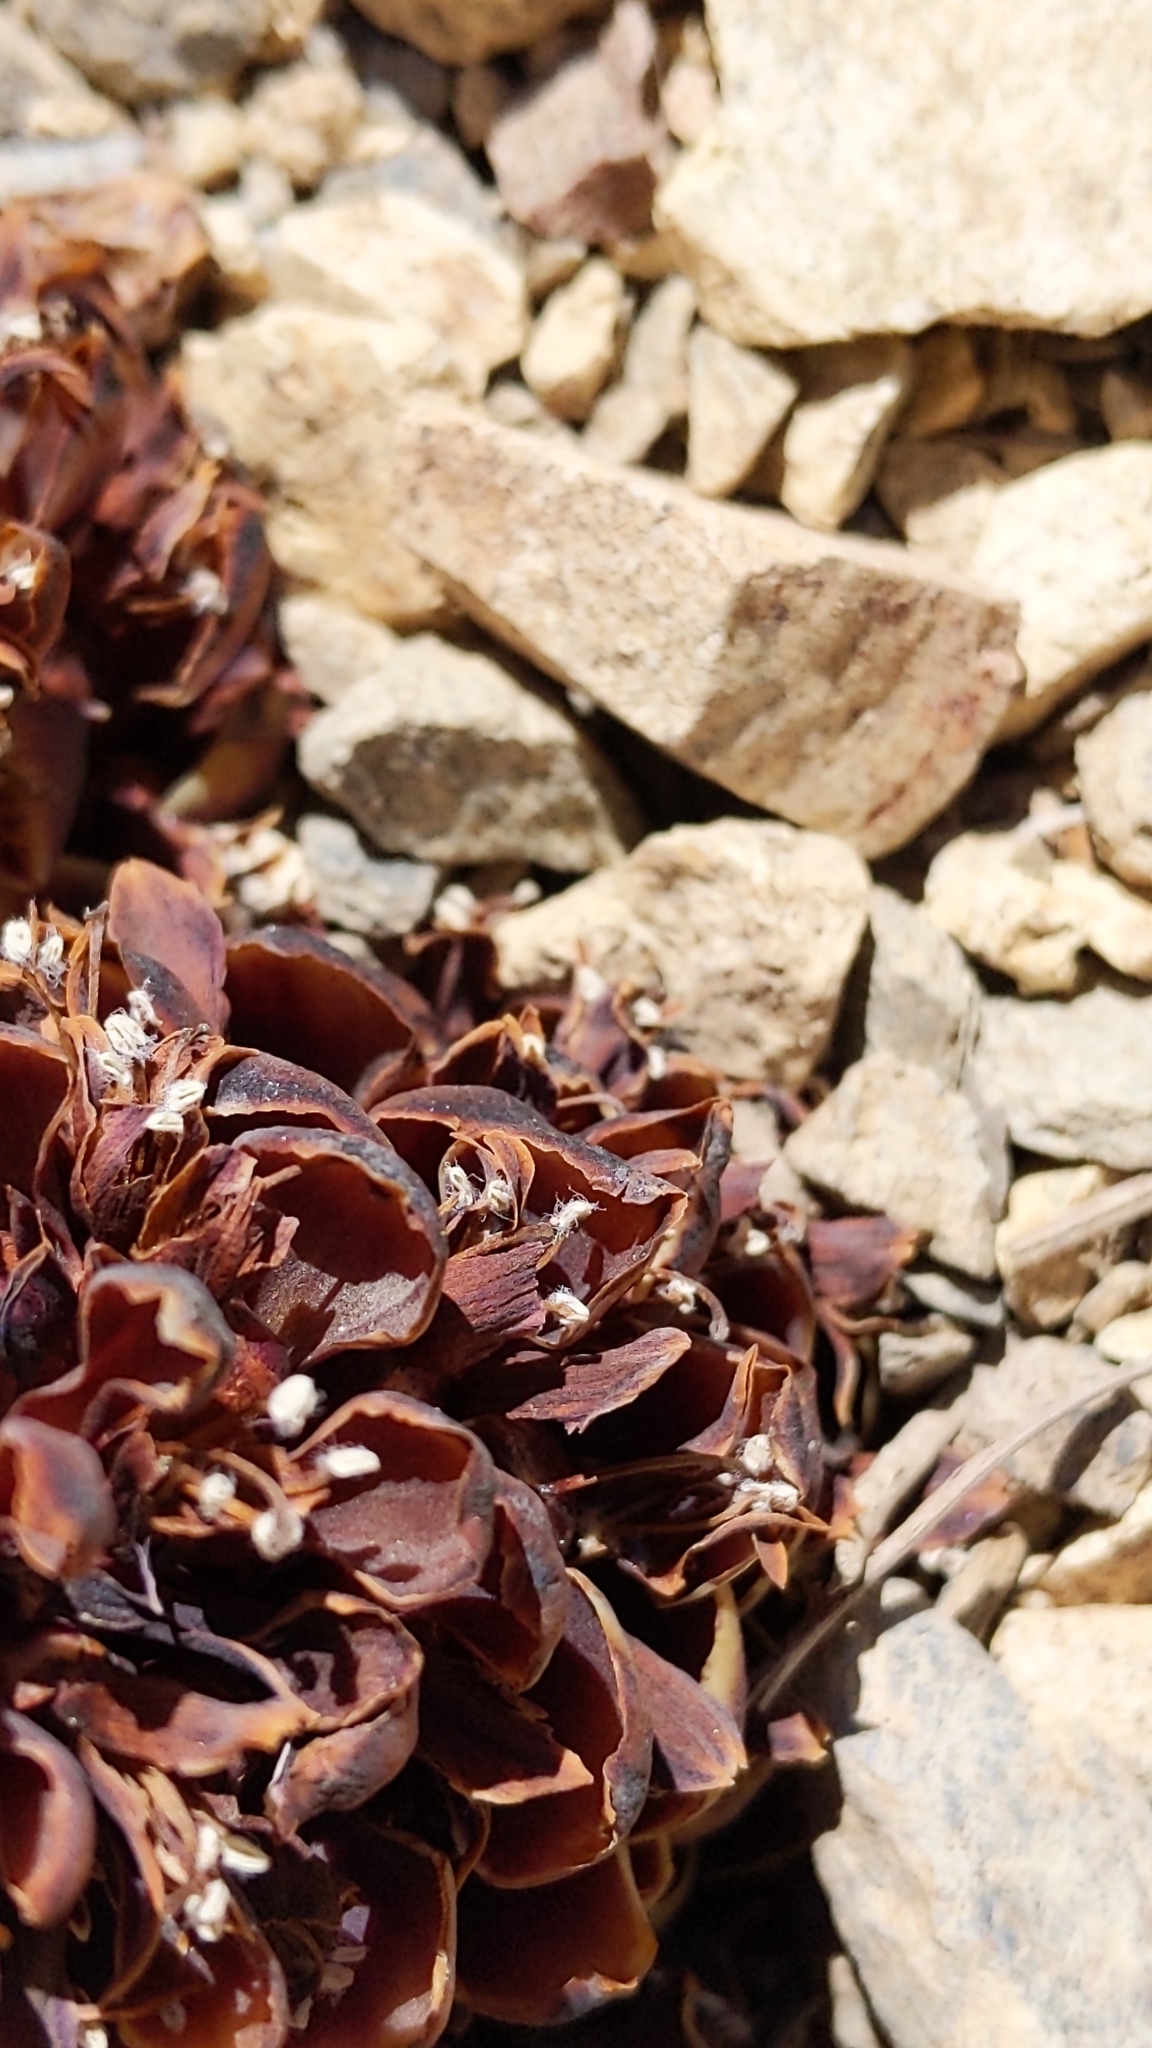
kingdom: Plantae
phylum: Tracheophyta
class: Magnoliopsida
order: Lamiales
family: Orobanchaceae
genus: Kopsiopsis
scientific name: Kopsiopsis strobilacea
